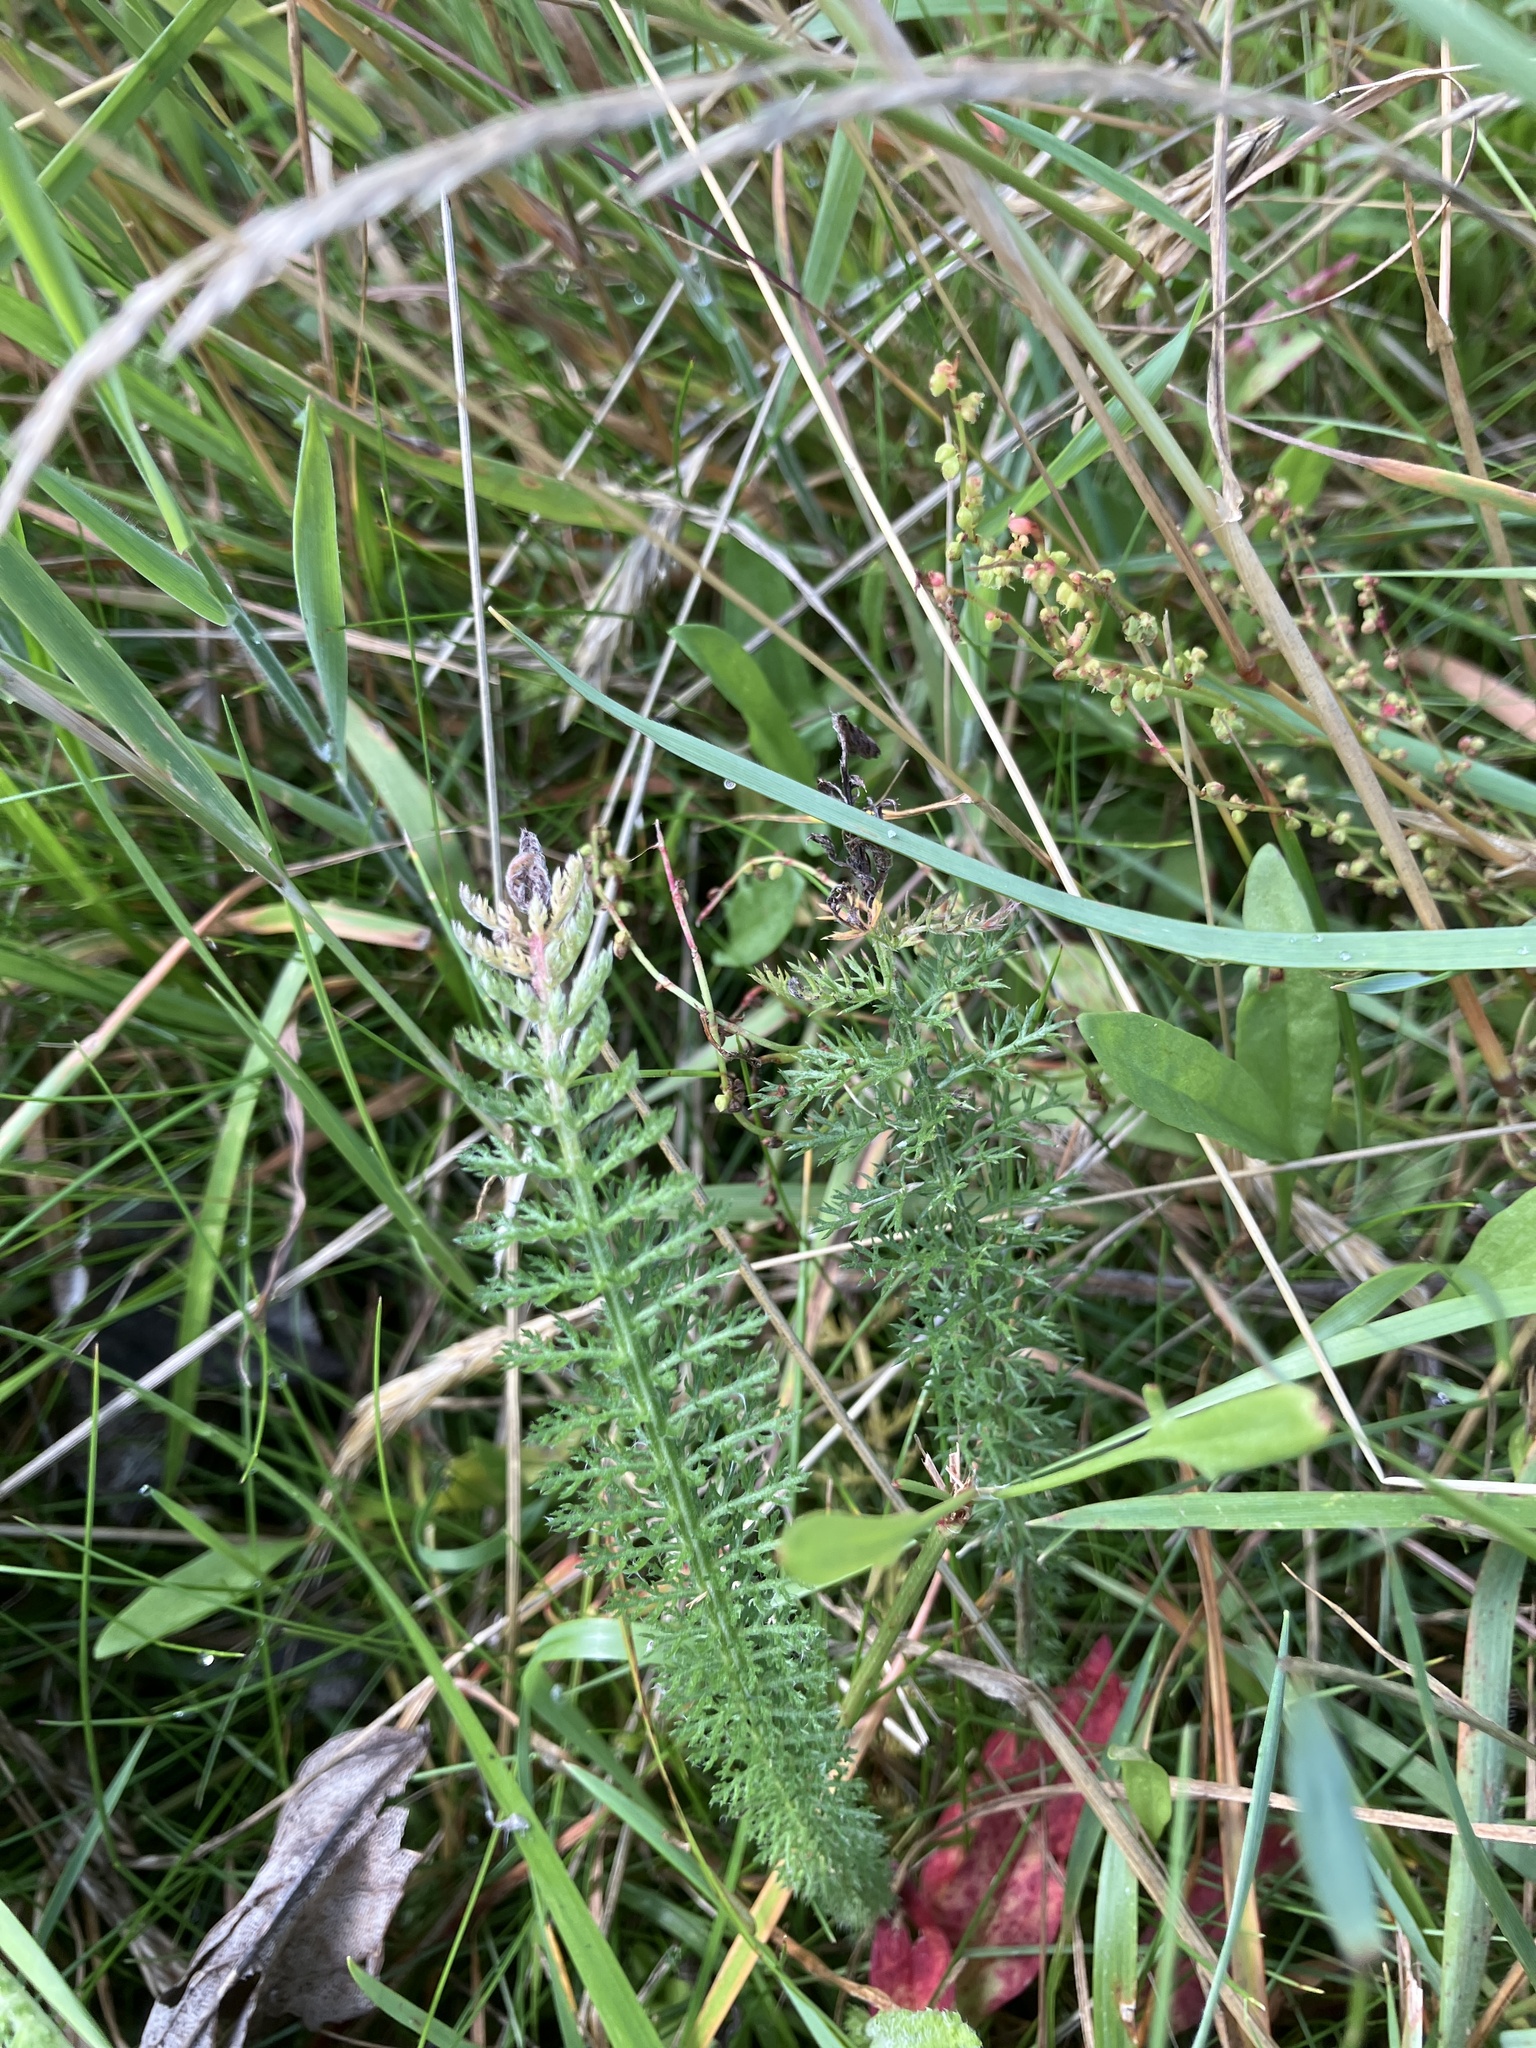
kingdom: Plantae
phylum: Tracheophyta
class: Magnoliopsida
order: Asterales
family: Asteraceae
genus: Achillea
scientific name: Achillea millefolium
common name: Yarrow
